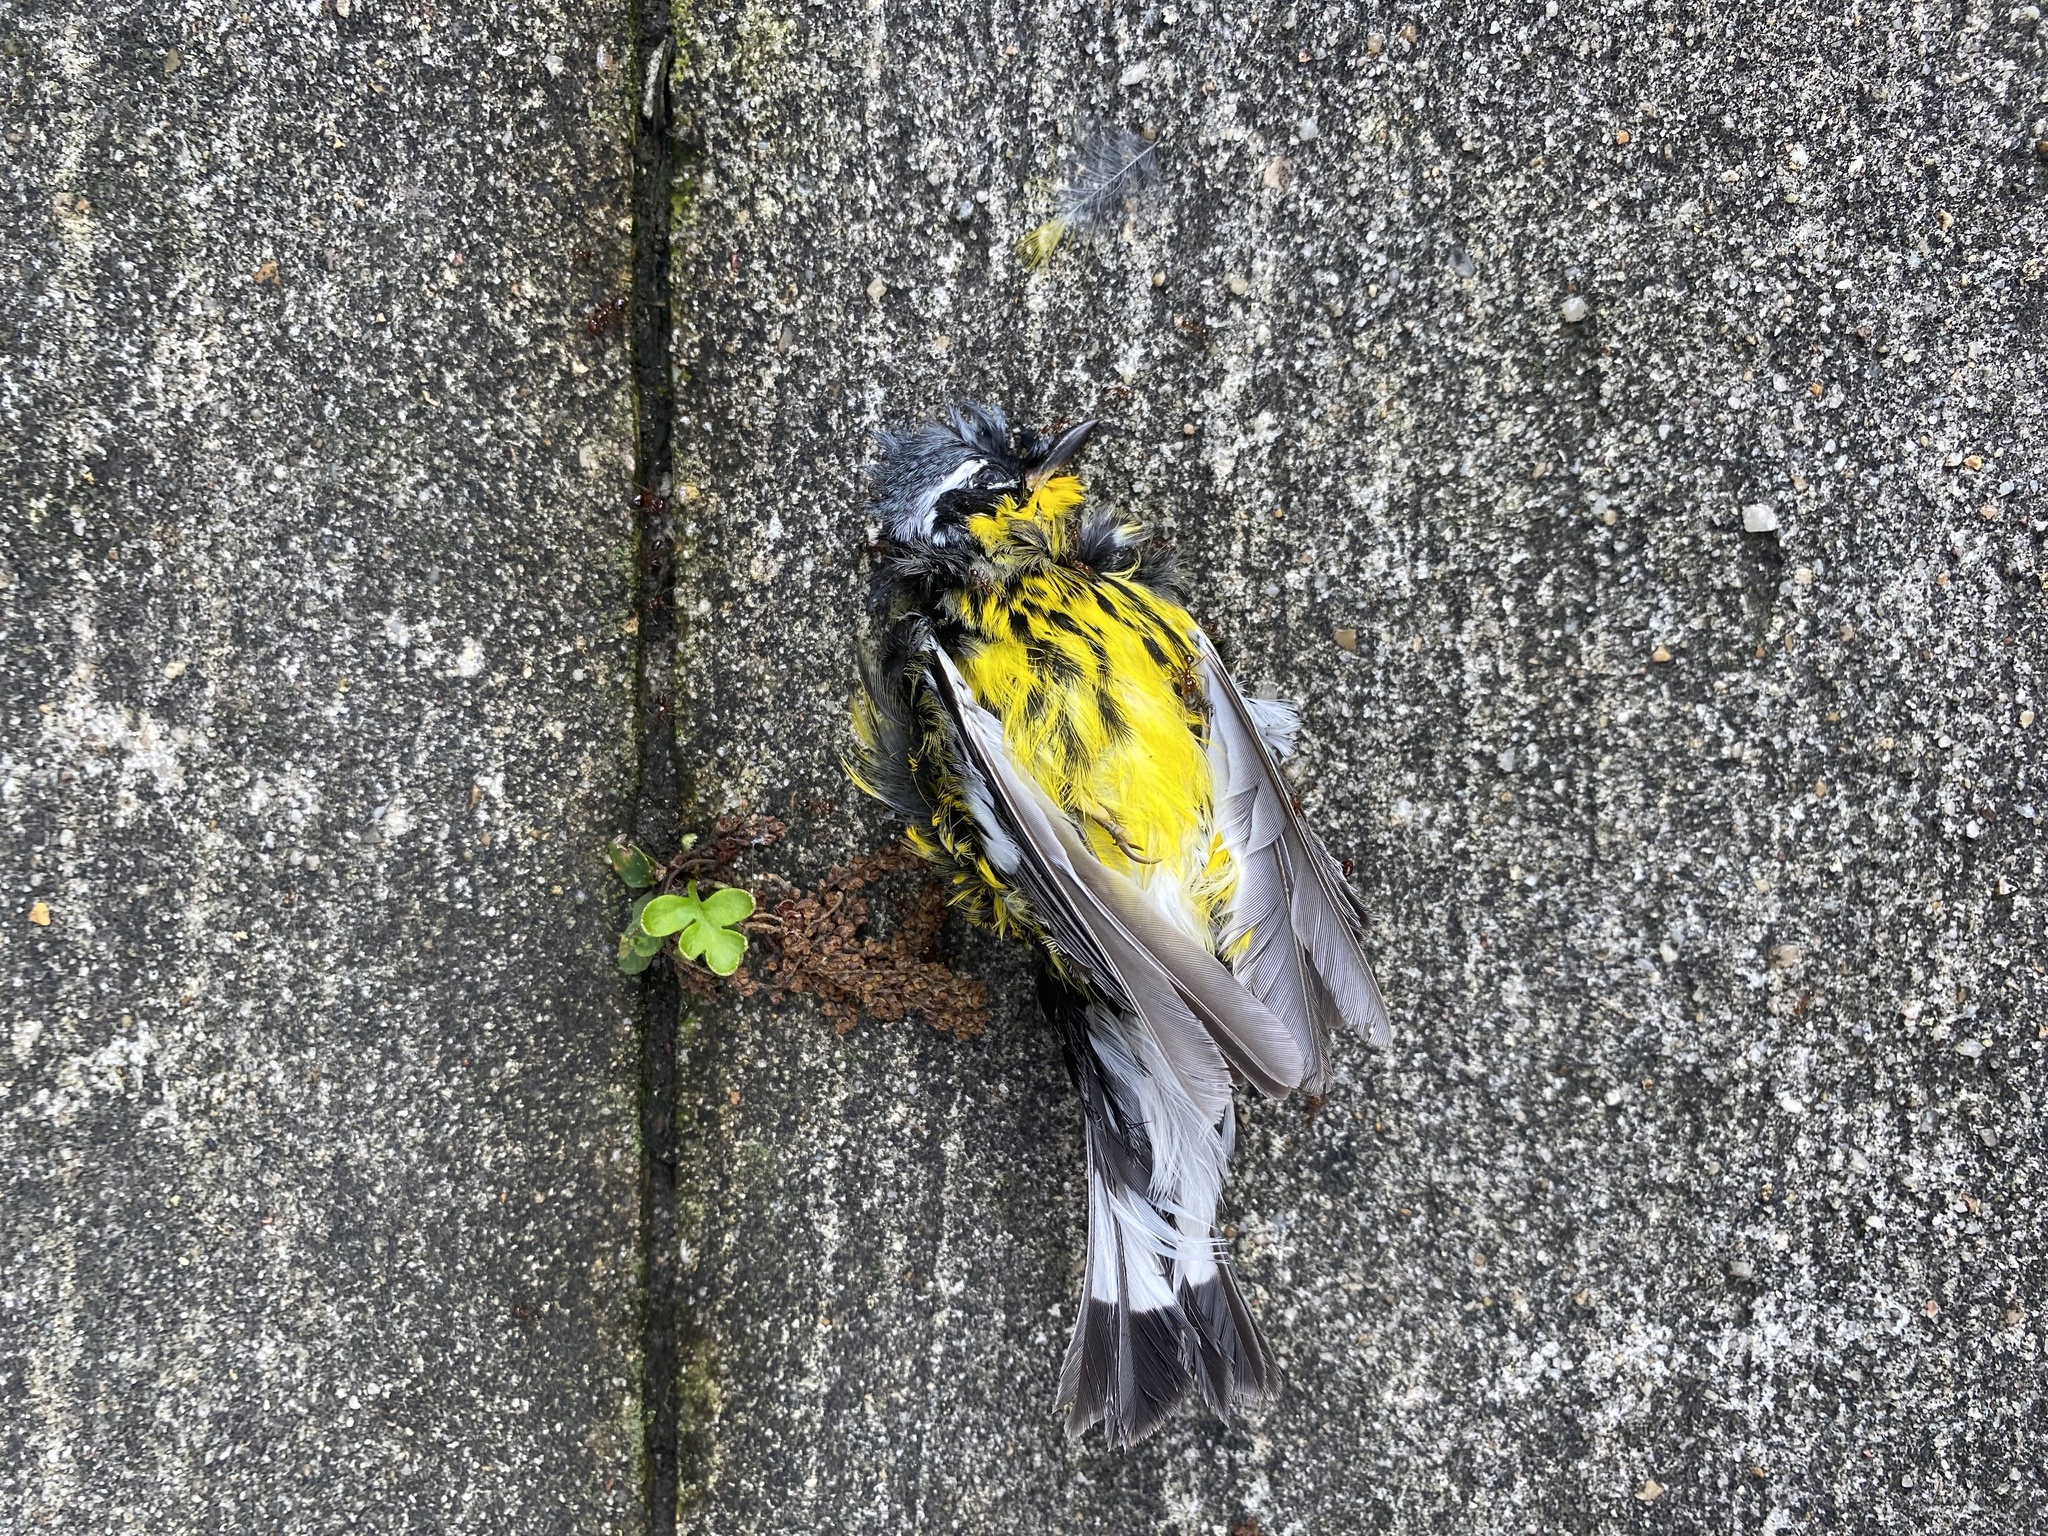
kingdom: Animalia
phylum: Chordata
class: Aves
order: Passeriformes
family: Parulidae
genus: Setophaga
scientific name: Setophaga magnolia
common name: Magnolia warbler
